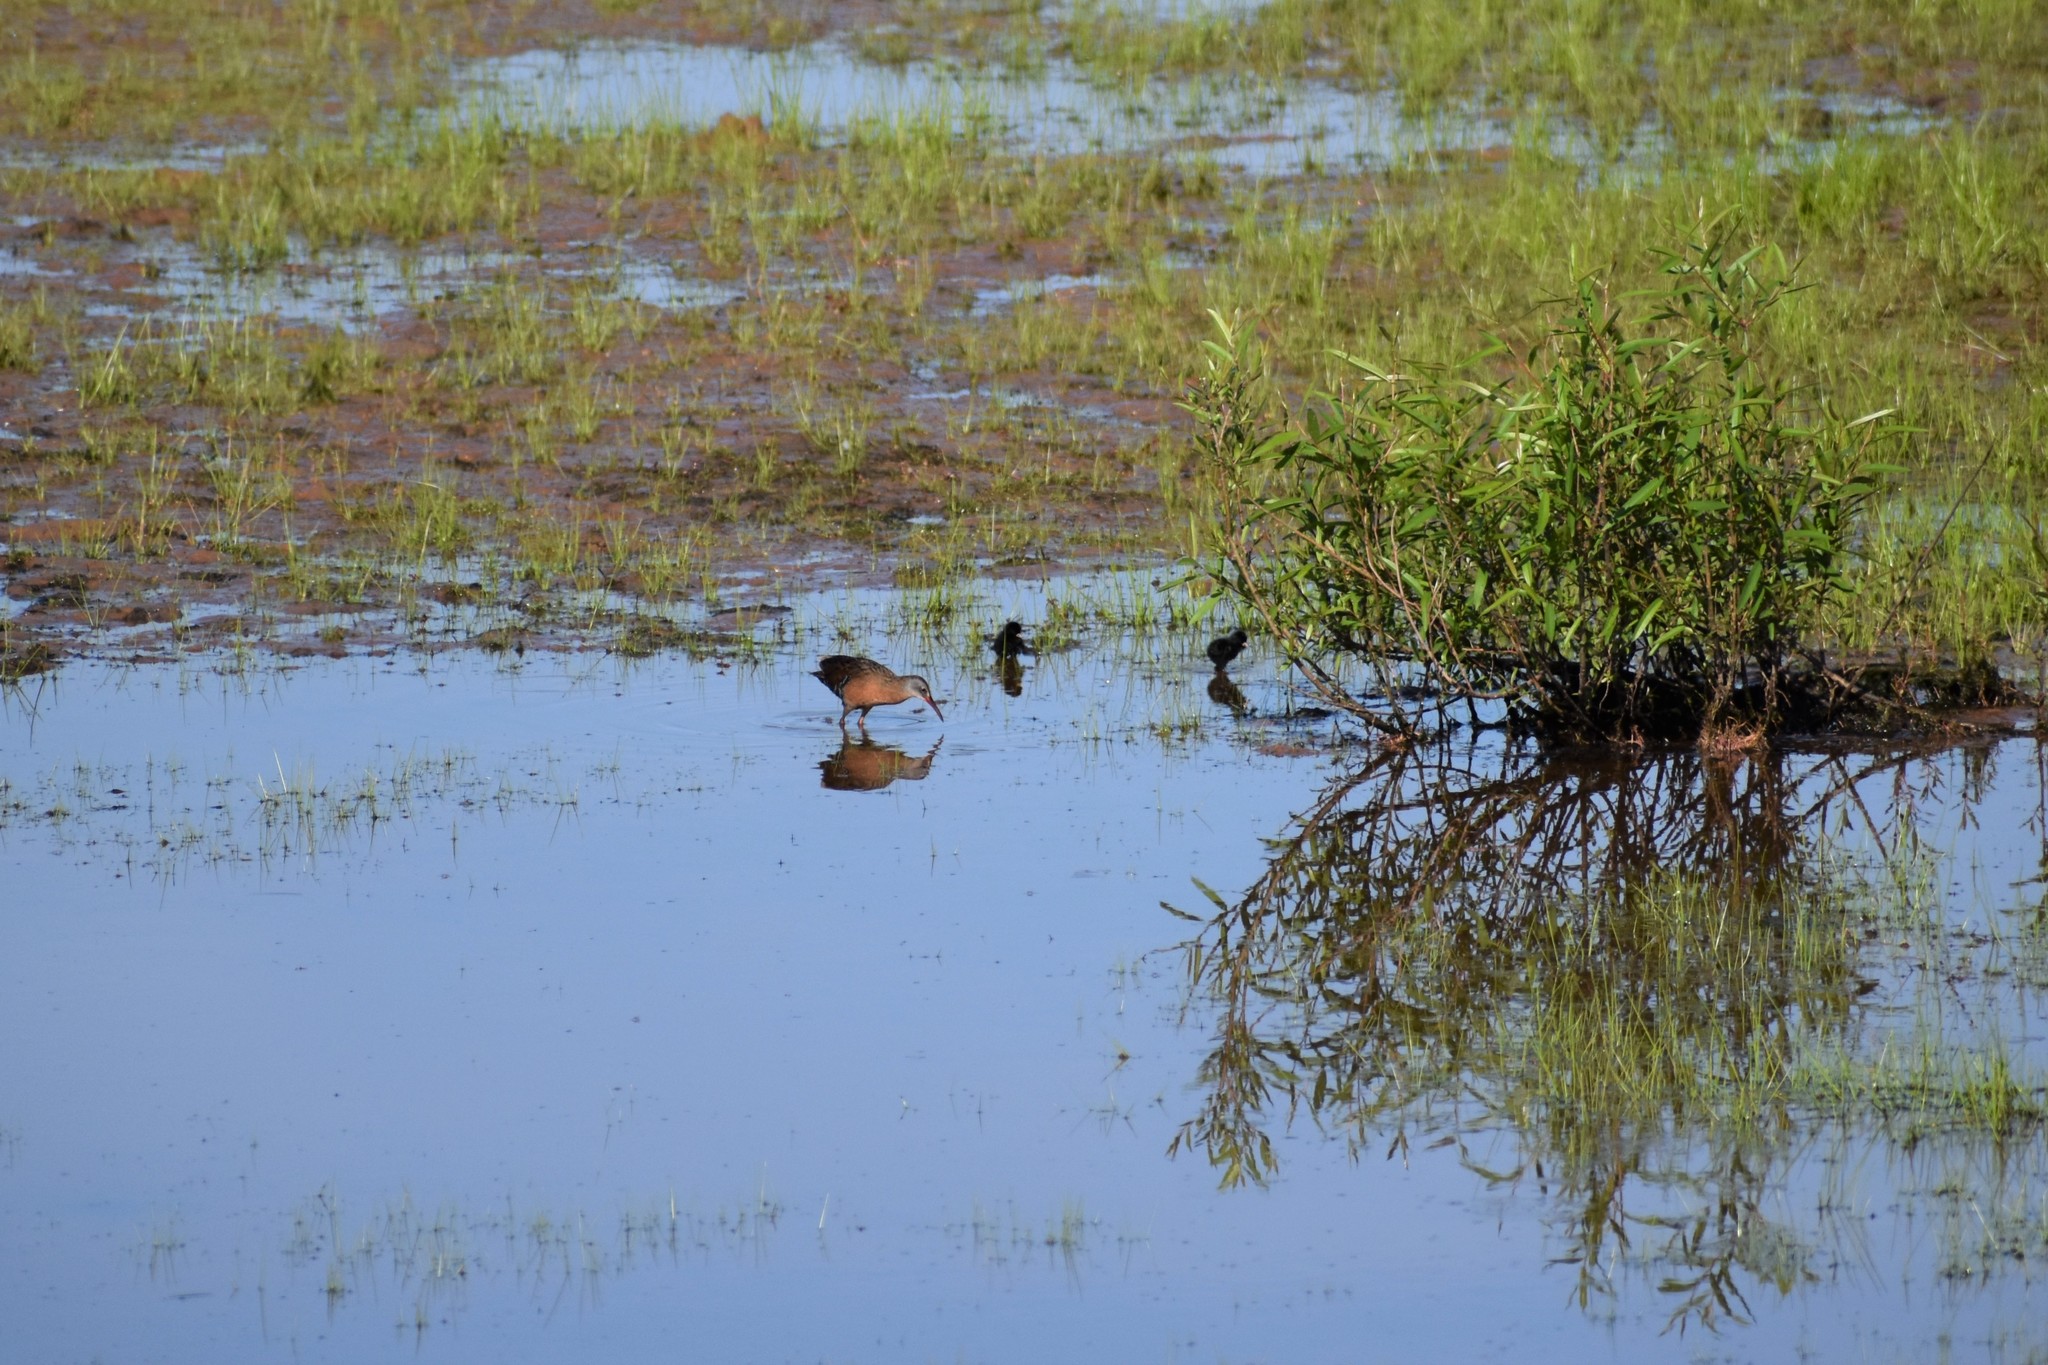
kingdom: Animalia
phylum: Chordata
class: Aves
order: Gruiformes
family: Rallidae
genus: Rallus
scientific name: Rallus limicola
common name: Virginia rail
